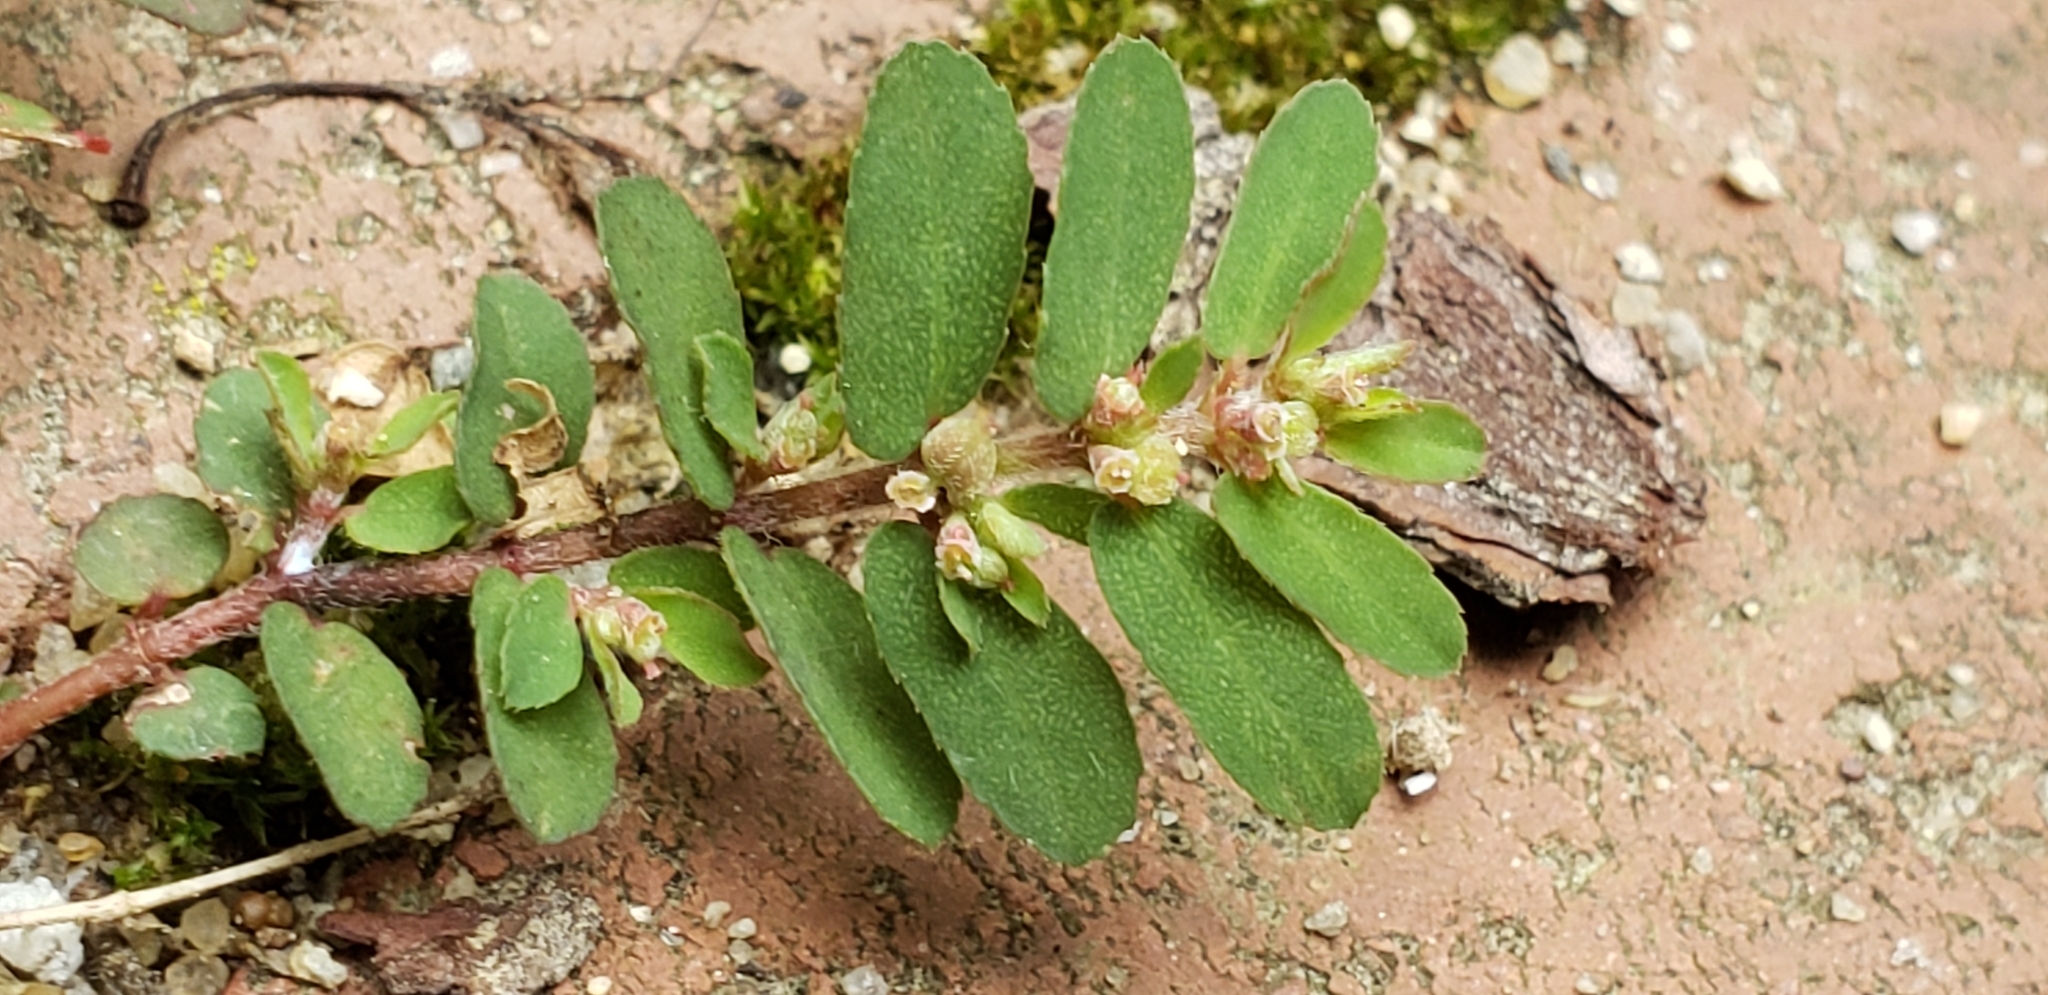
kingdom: Plantae
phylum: Tracheophyta
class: Magnoliopsida
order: Malpighiales
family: Euphorbiaceae
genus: Euphorbia
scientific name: Euphorbia maculata
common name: Spotted spurge
